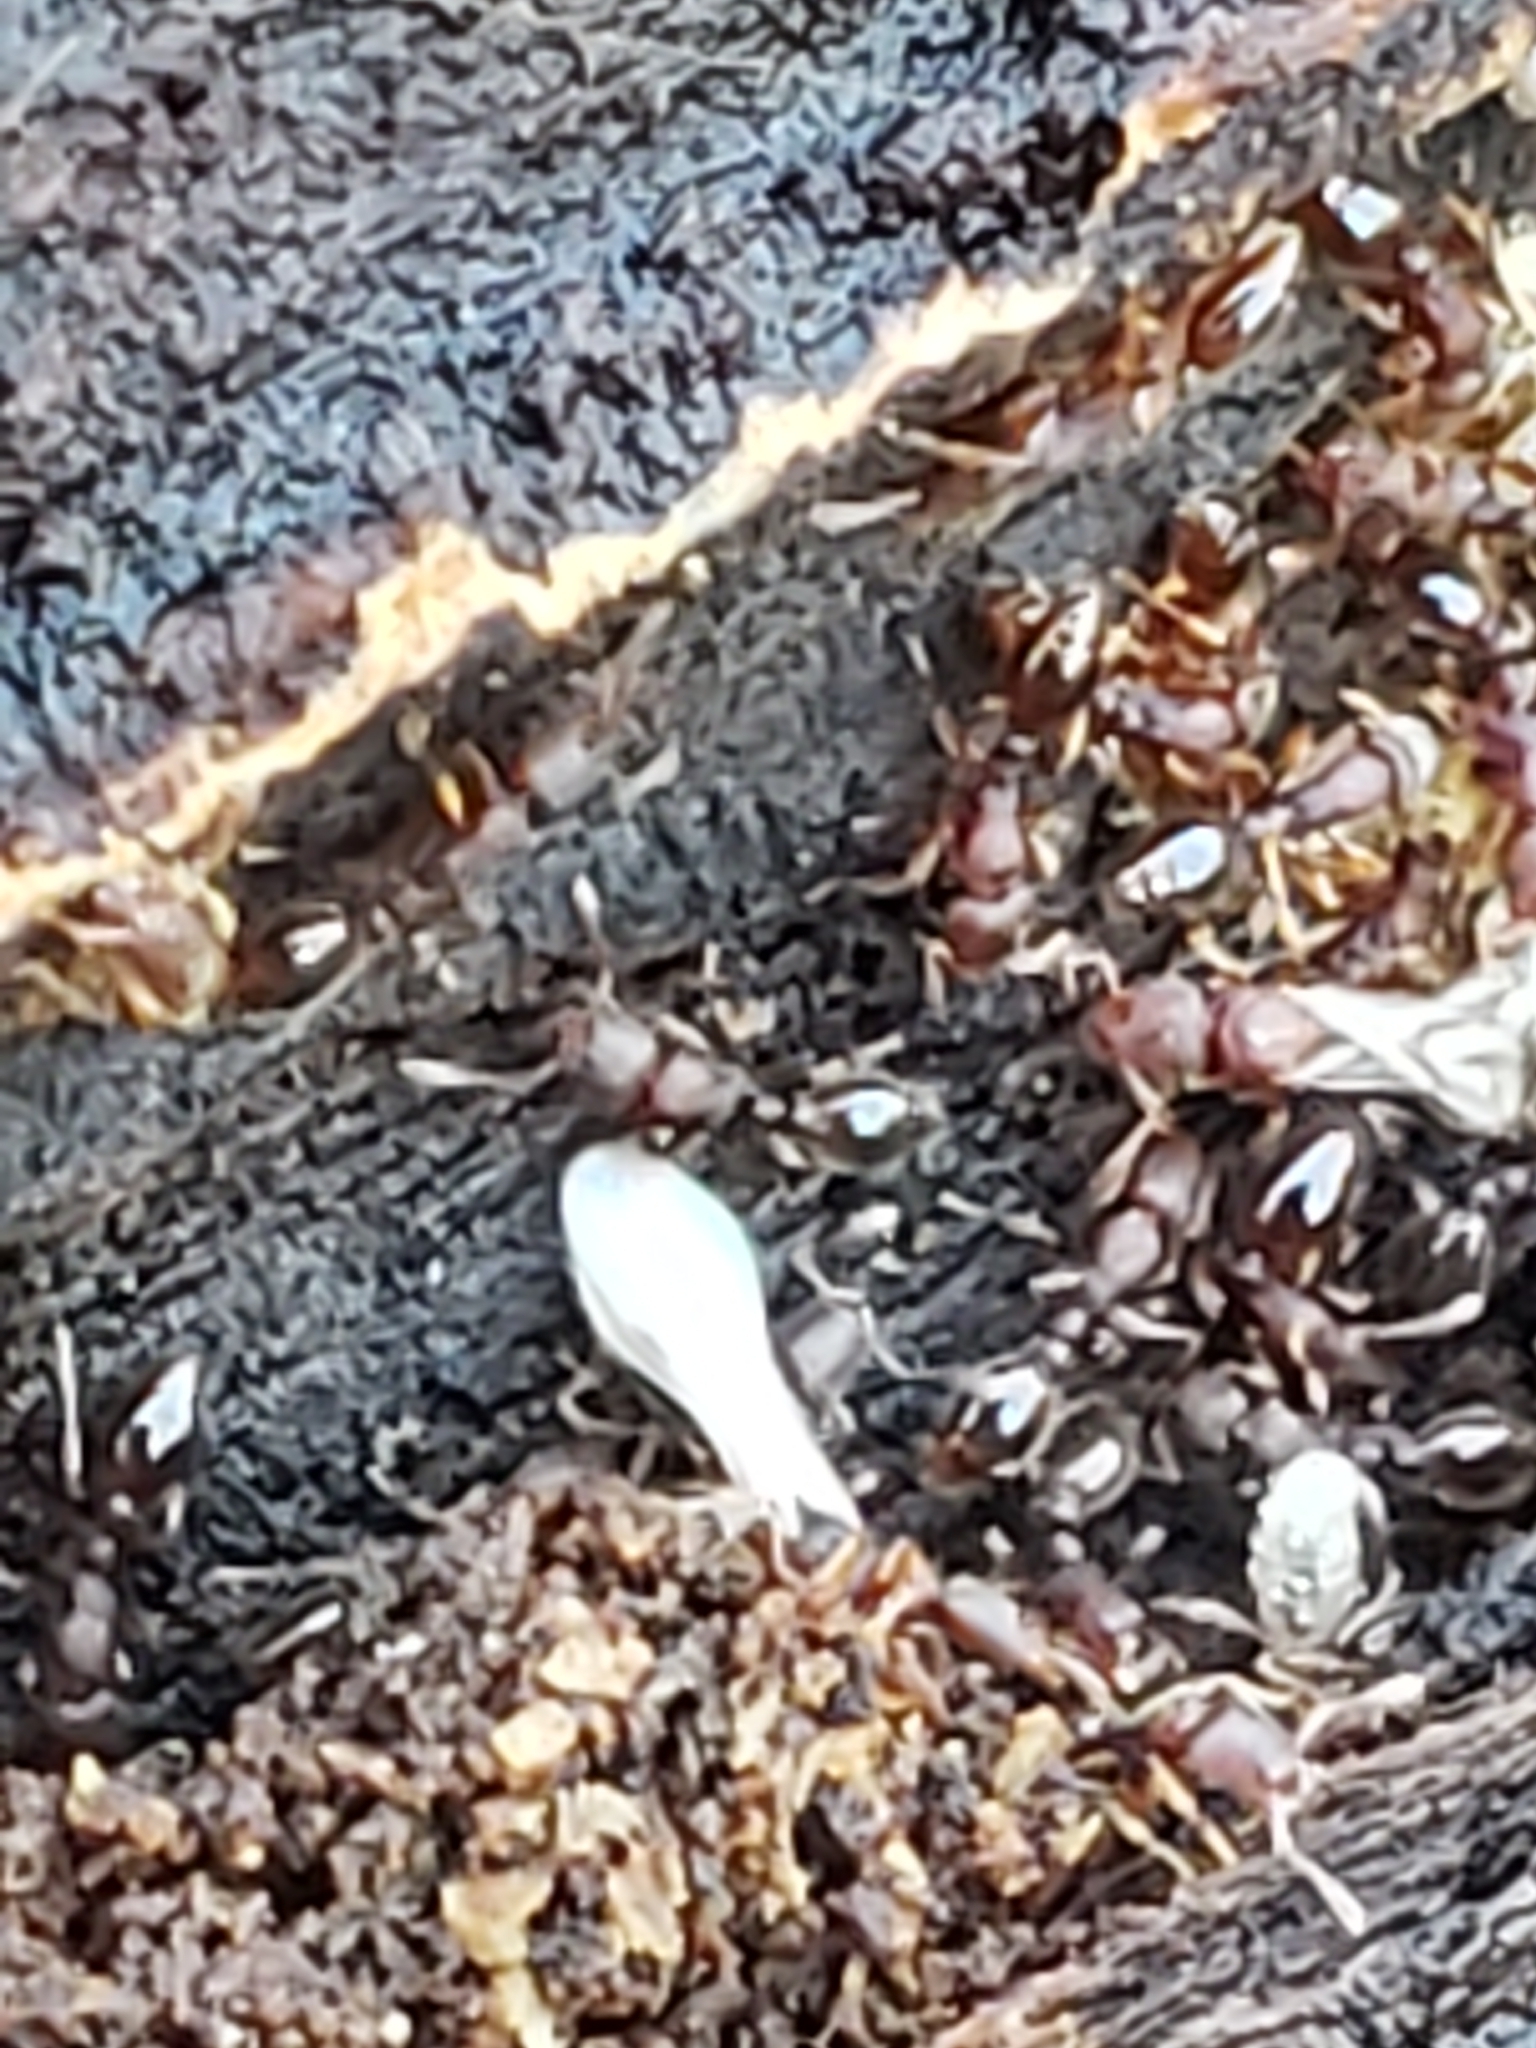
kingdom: Animalia
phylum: Arthropoda
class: Insecta
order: Hymenoptera
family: Formicidae
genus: Vollenhovia
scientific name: Vollenhovia emeryi
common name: Ant
